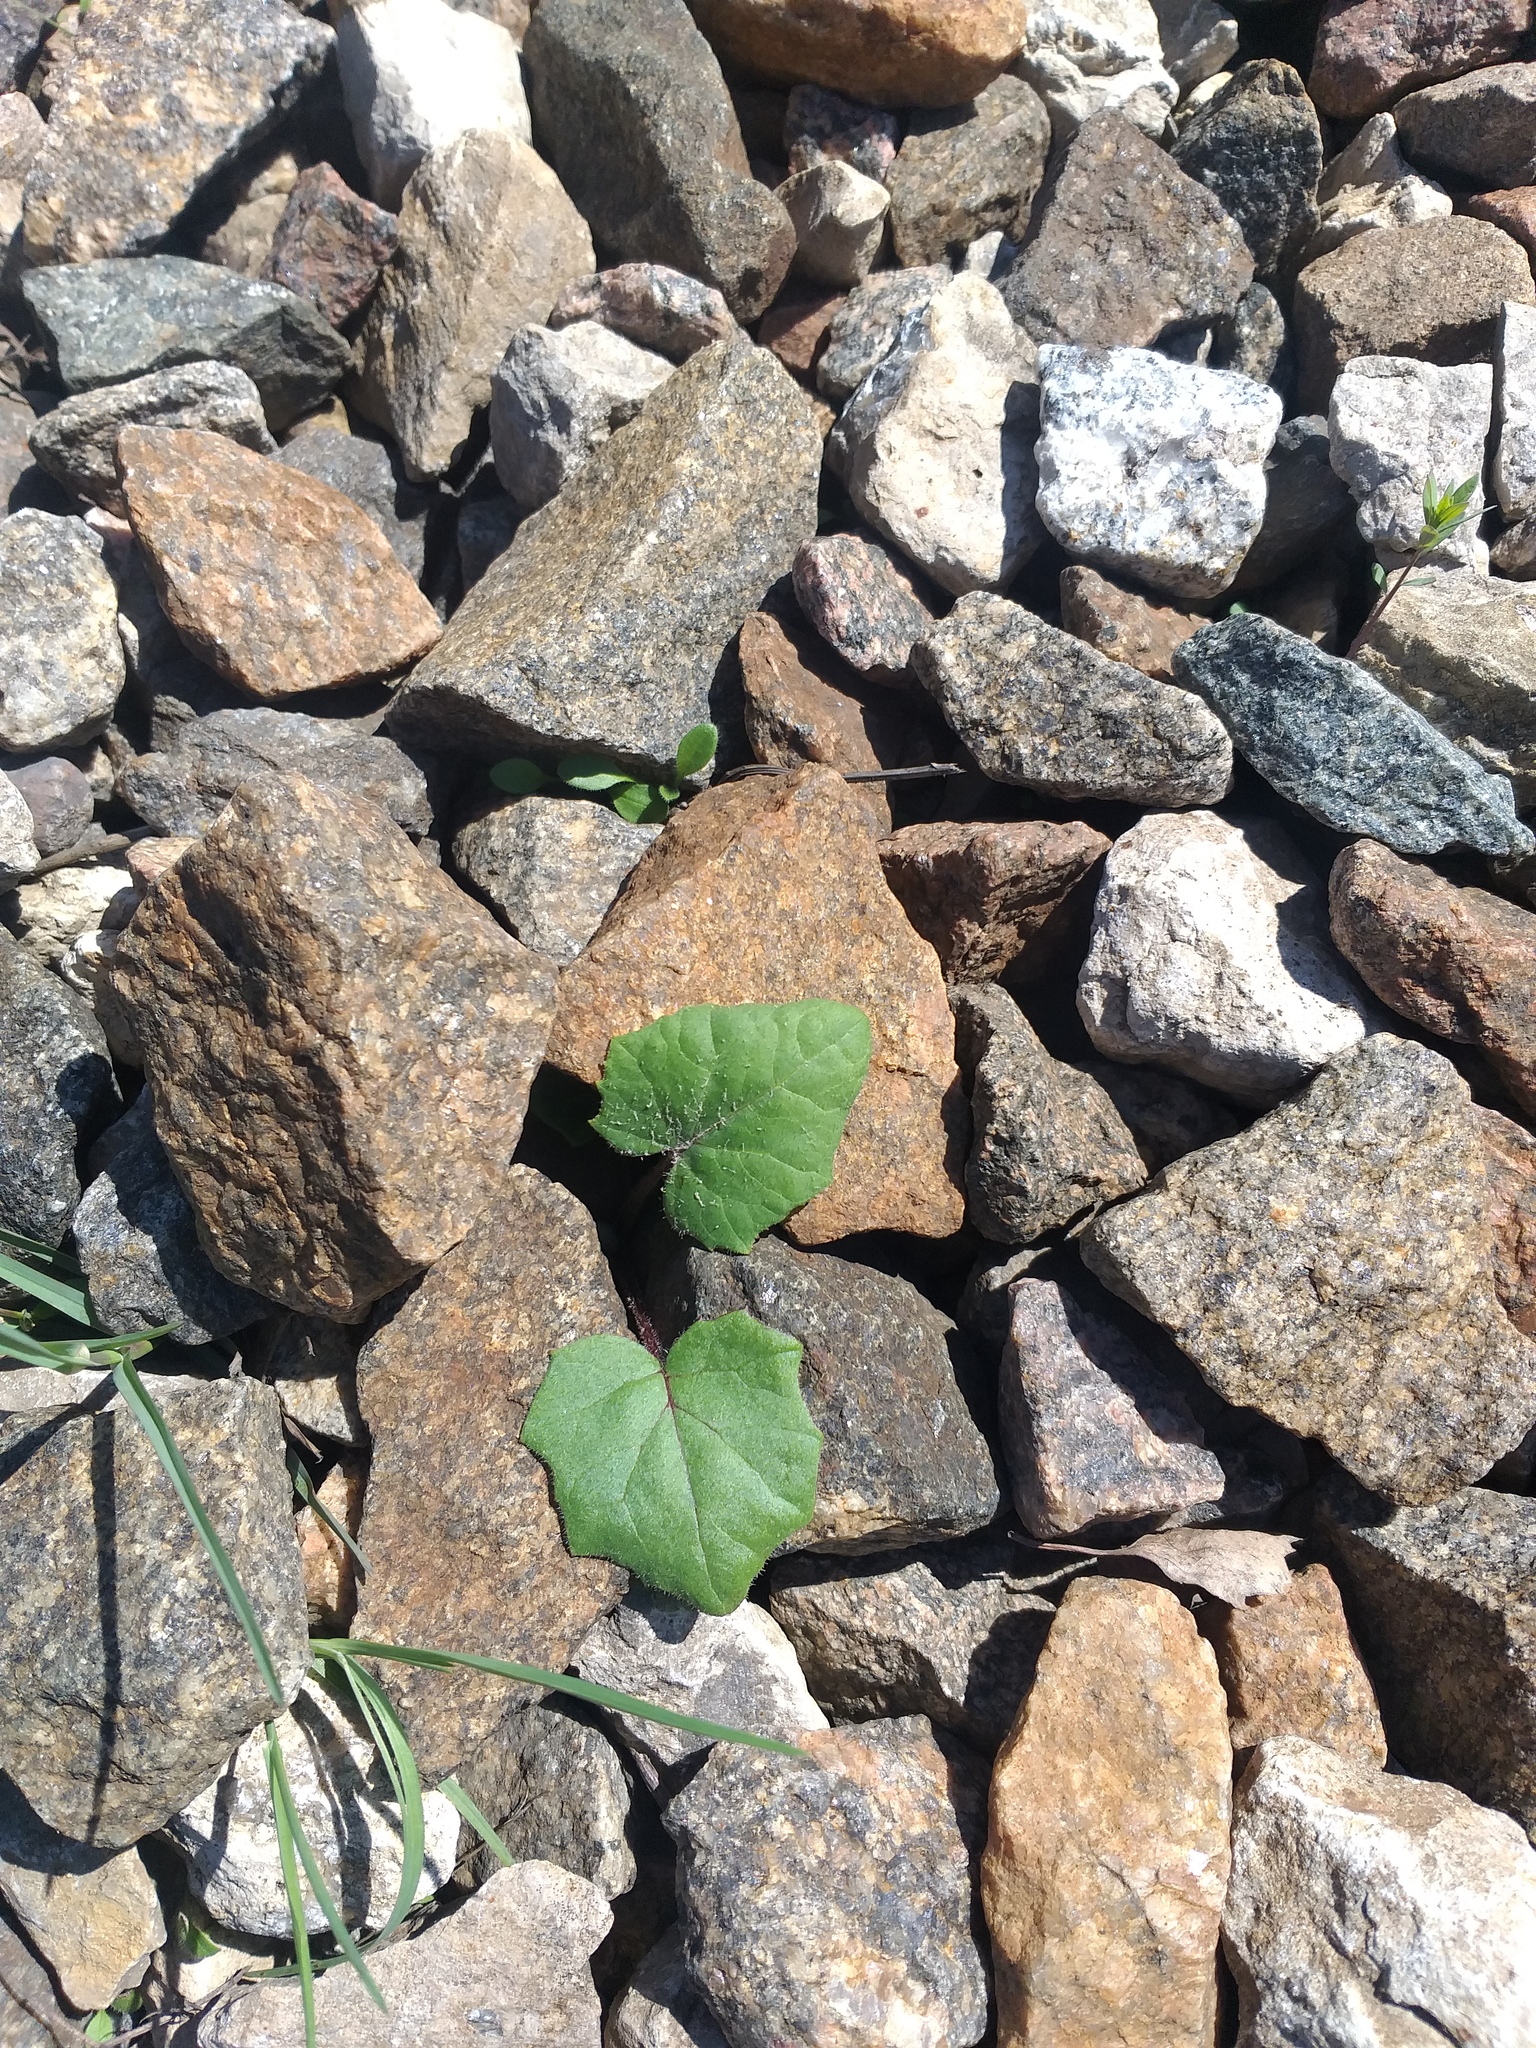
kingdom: Plantae
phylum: Tracheophyta
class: Magnoliopsida
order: Asterales
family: Asteraceae
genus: Tussilago
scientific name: Tussilago farfara
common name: Coltsfoot
